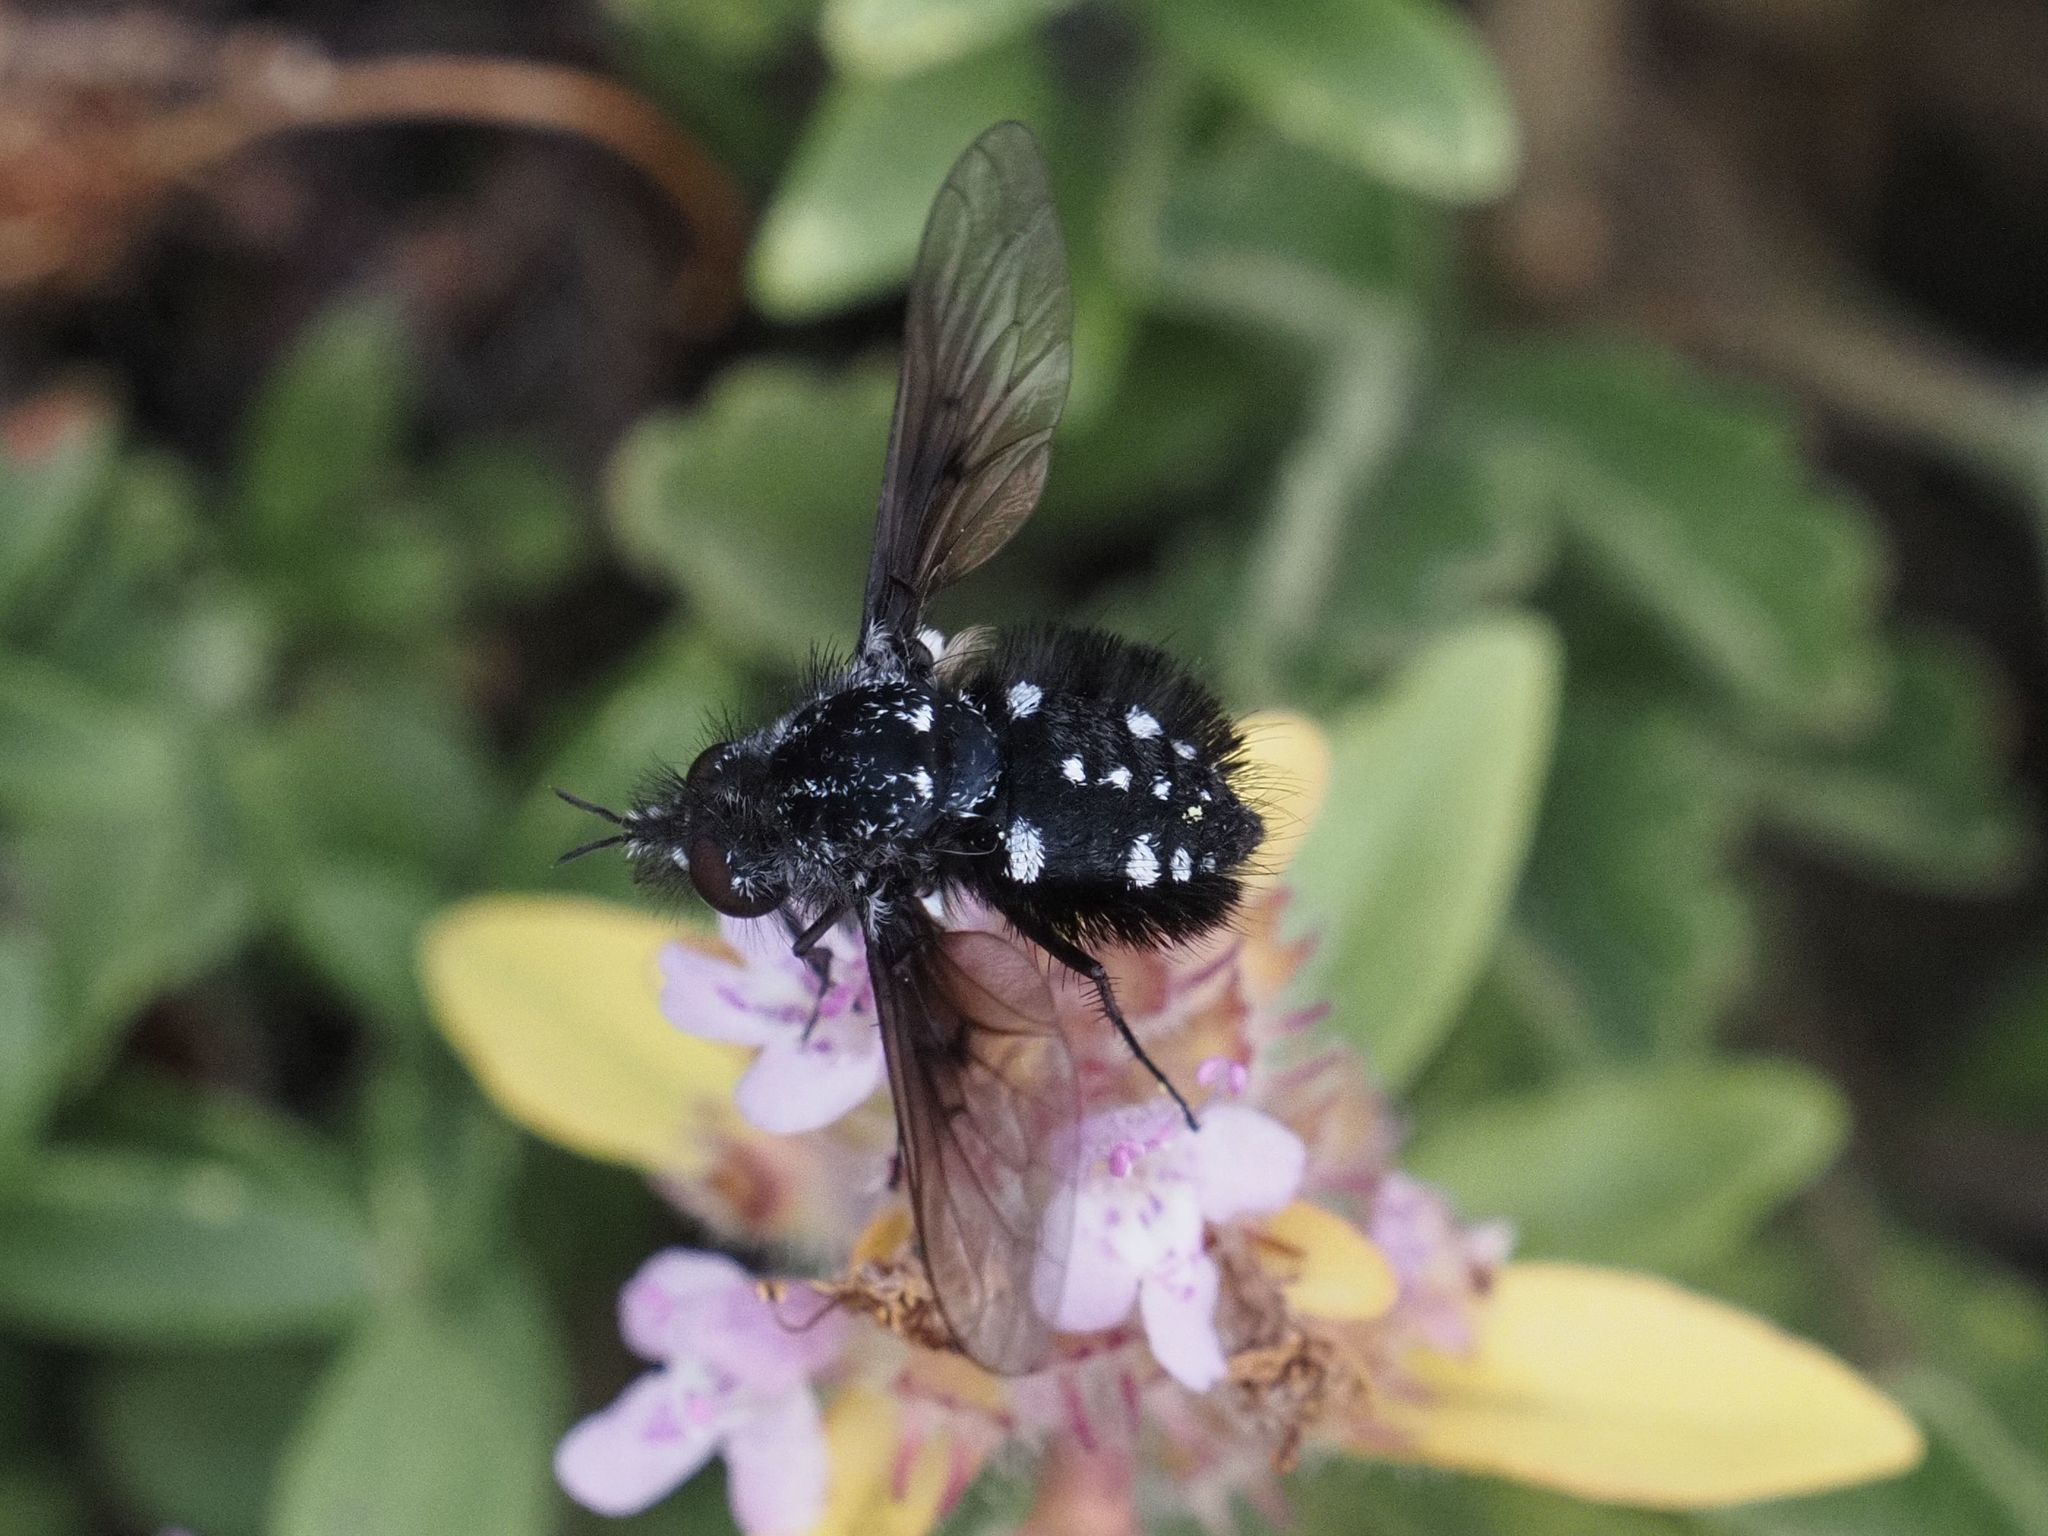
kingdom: Animalia
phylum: Arthropoda
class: Insecta
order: Diptera
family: Bombyliidae
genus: Bombylella
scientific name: Bombylella atra
